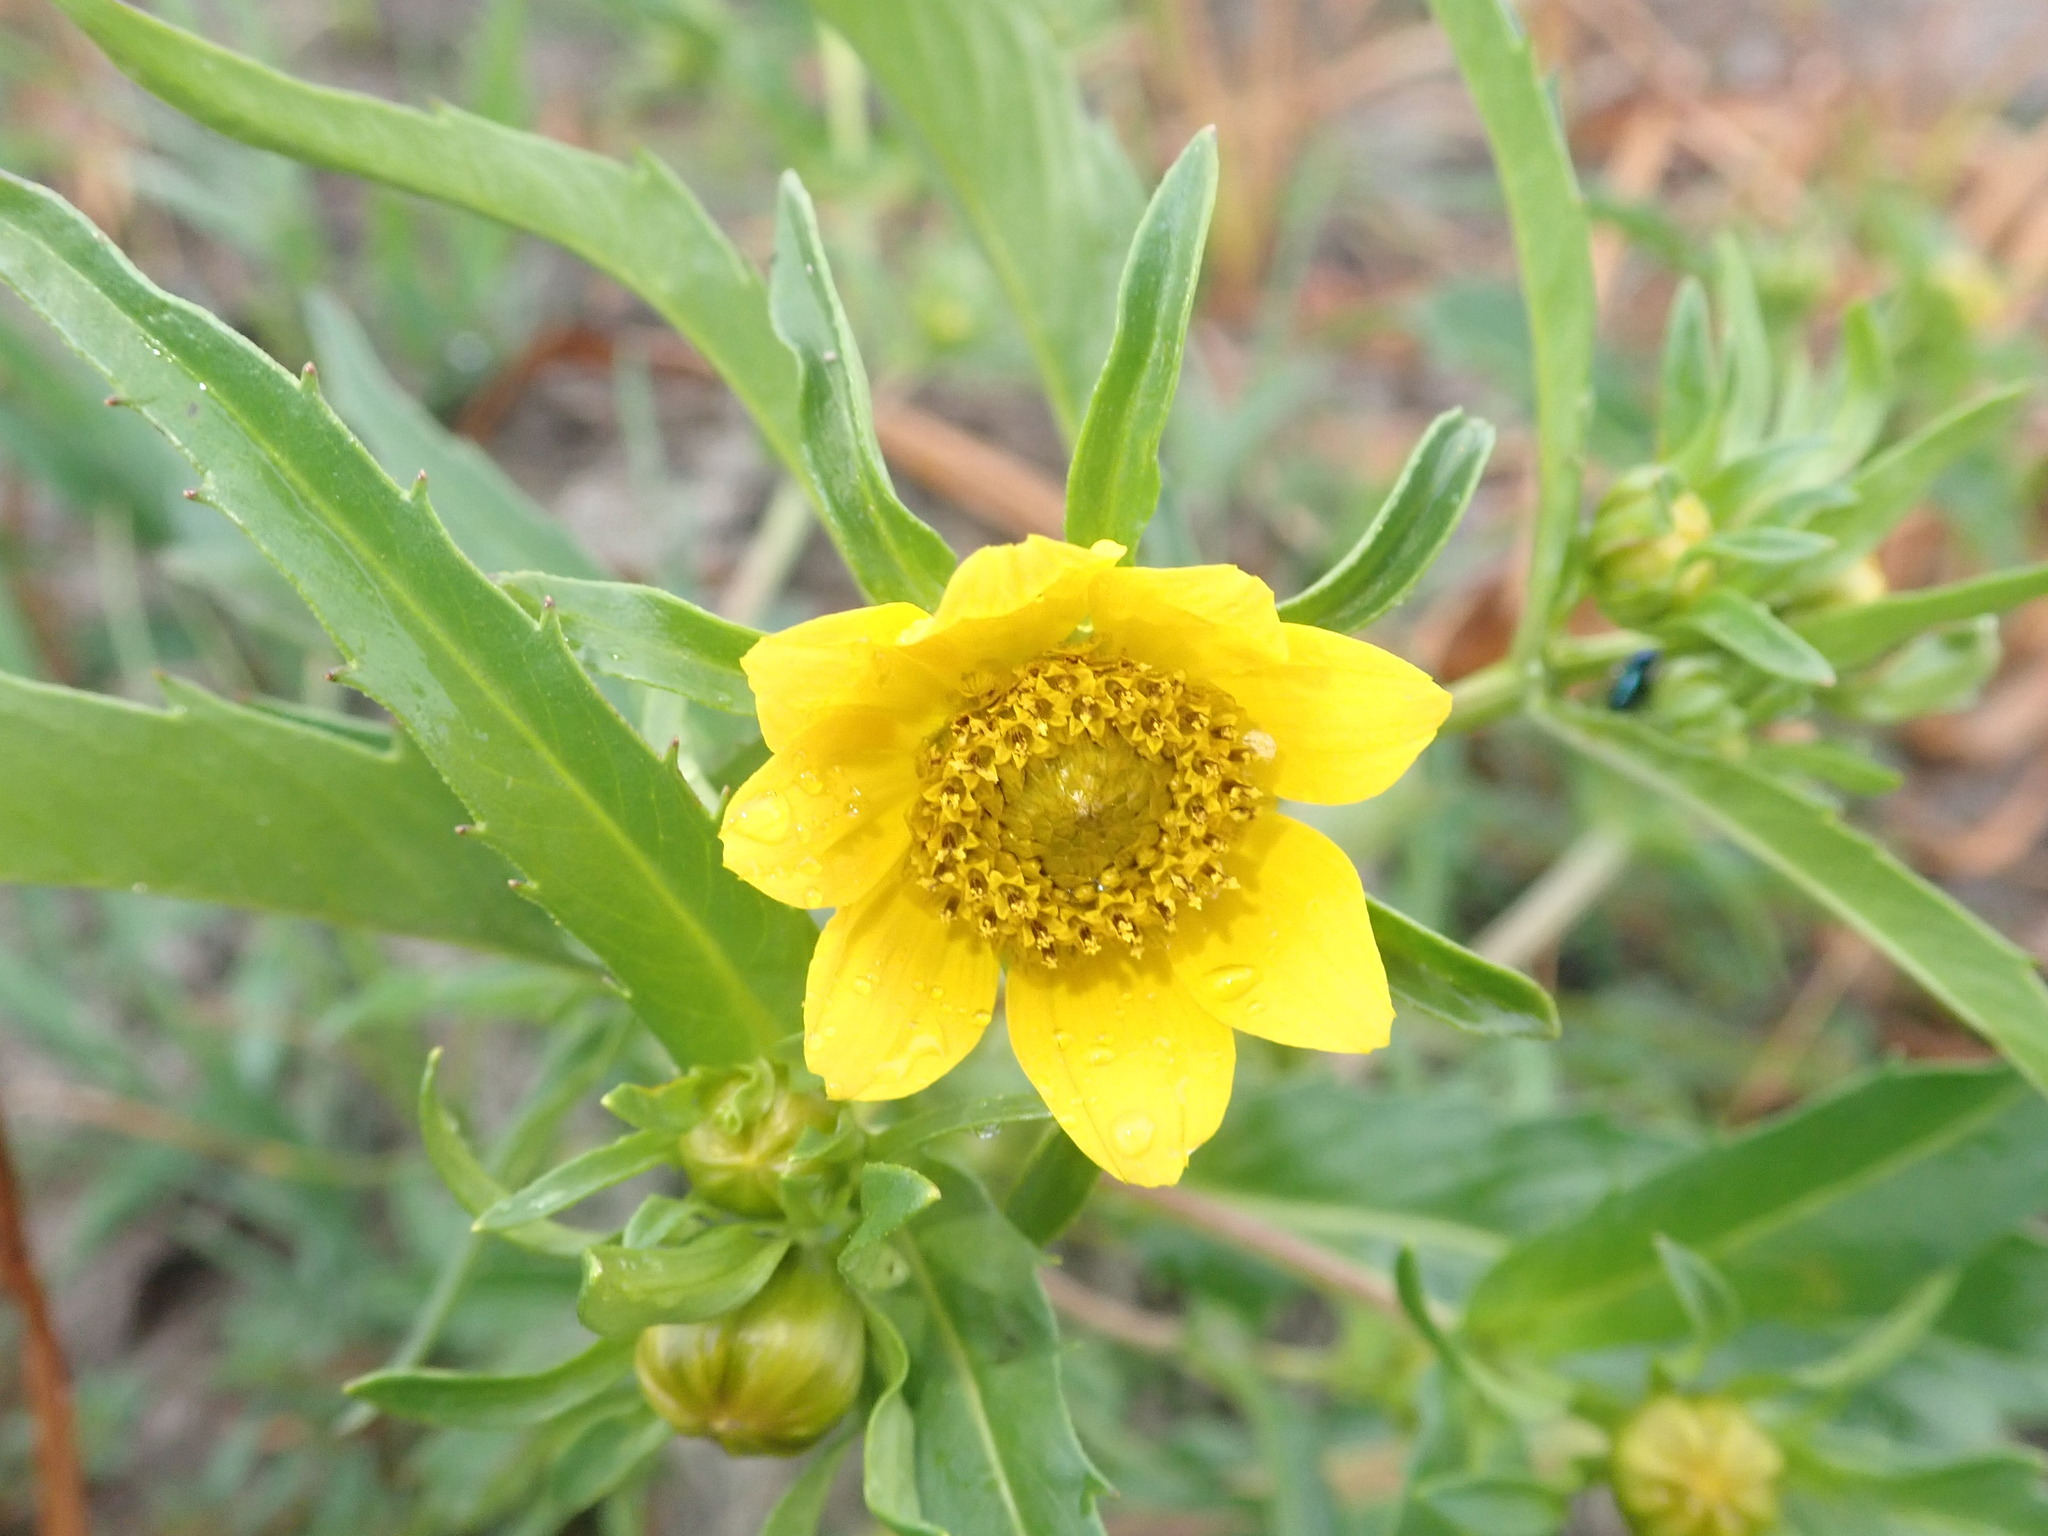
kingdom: Plantae
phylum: Tracheophyta
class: Magnoliopsida
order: Asterales
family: Asteraceae
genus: Bidens
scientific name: Bidens cernua
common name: Nodding bur-marigold
